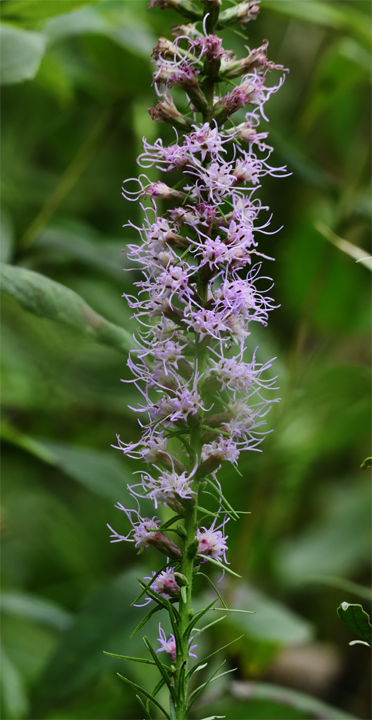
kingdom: Plantae
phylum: Tracheophyta
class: Magnoliopsida
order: Asterales
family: Asteraceae
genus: Liatris
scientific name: Liatris spicata
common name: Florist gayfeather
